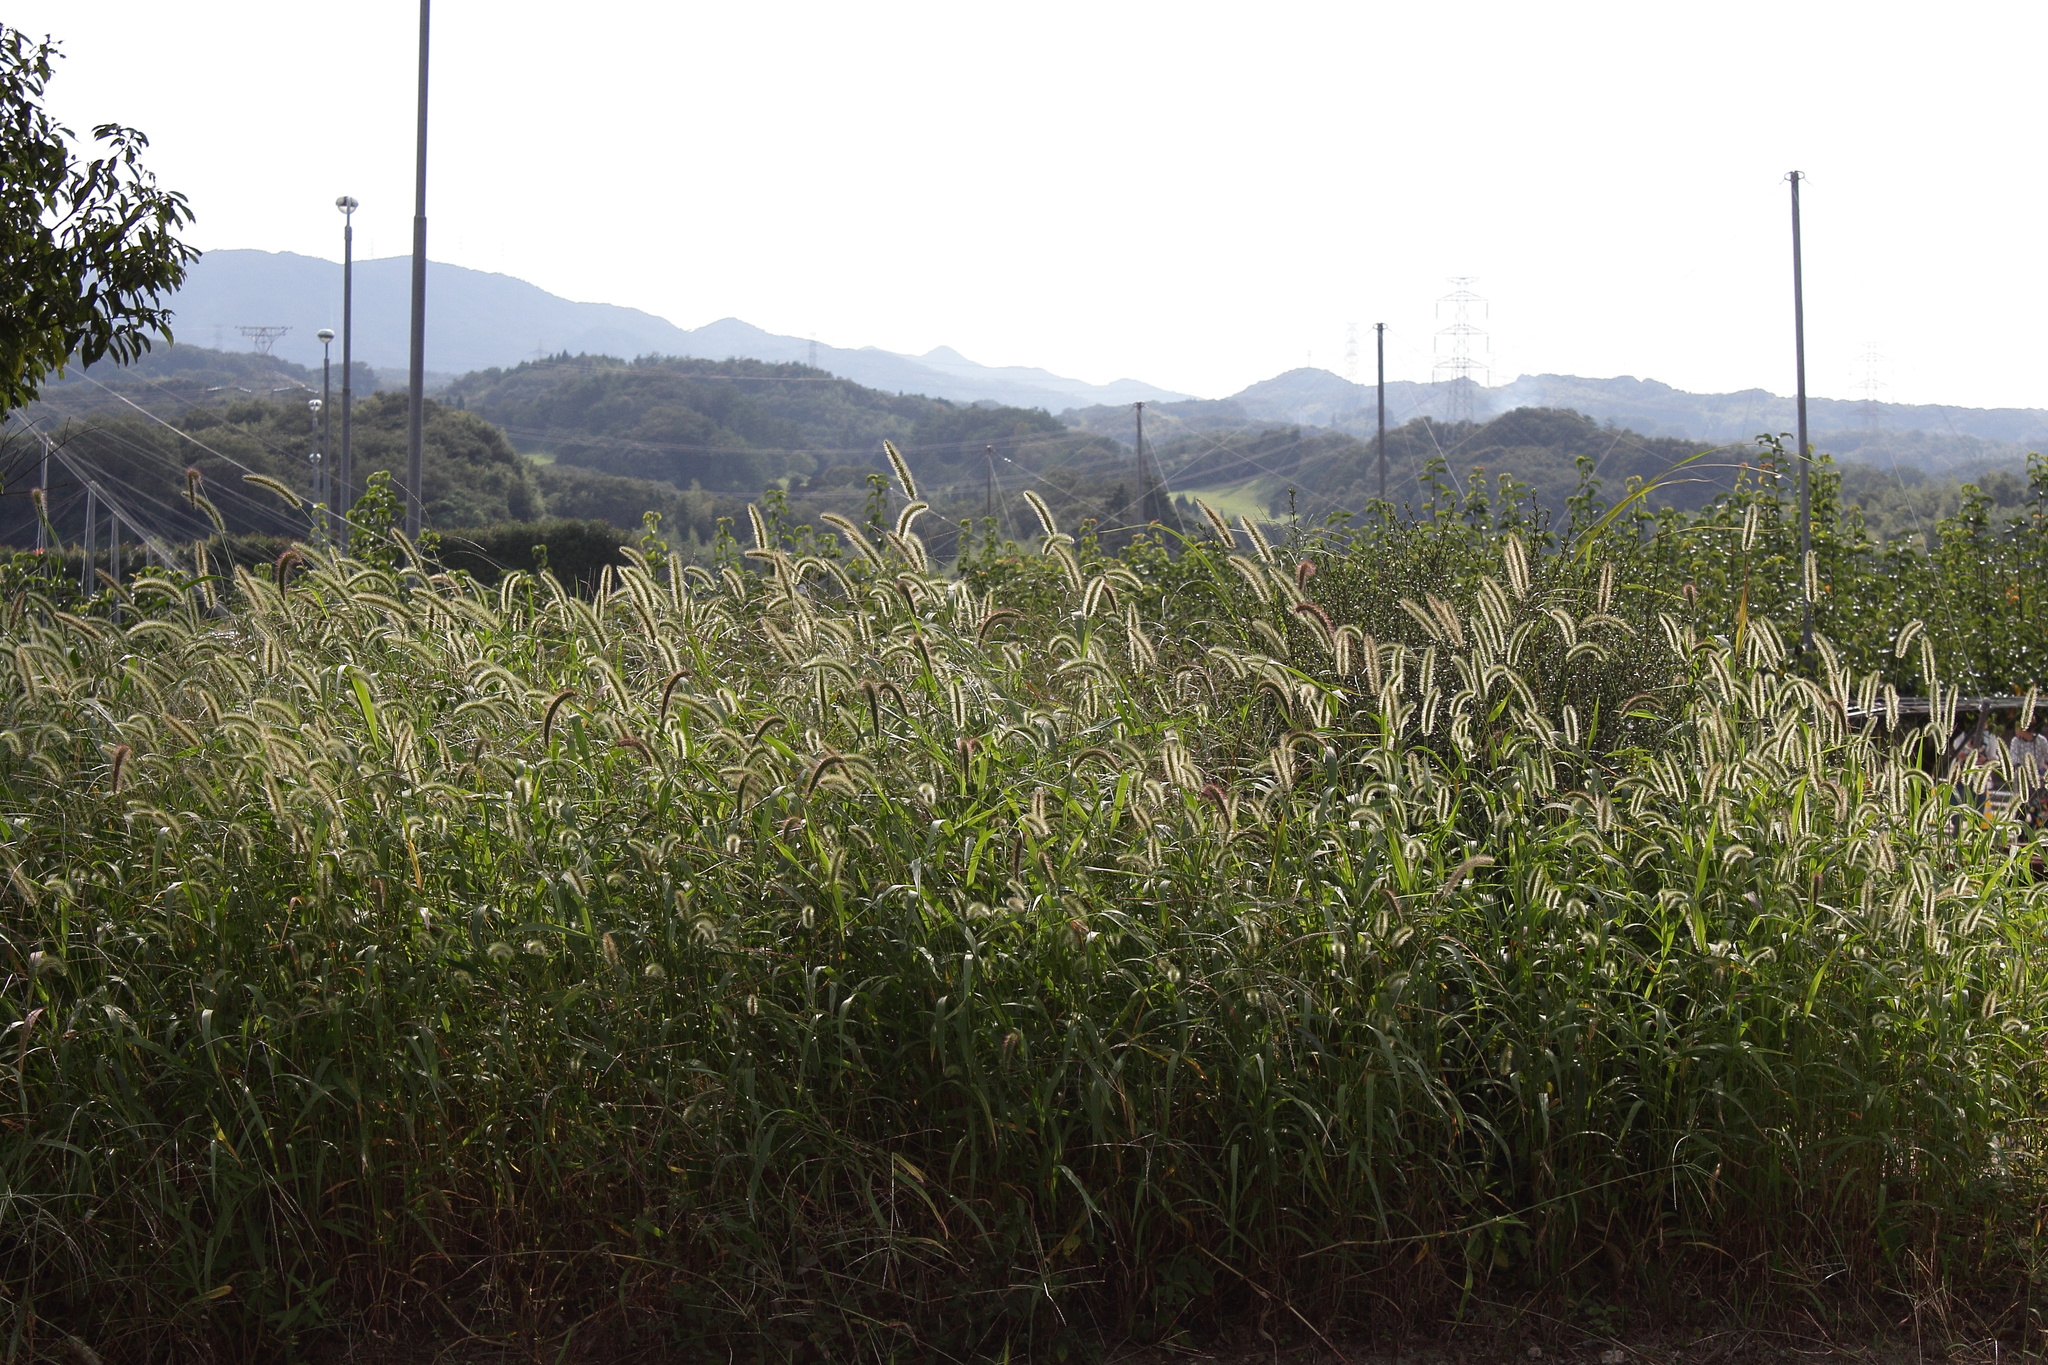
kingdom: Plantae
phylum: Tracheophyta
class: Liliopsida
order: Poales
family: Poaceae
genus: Setaria
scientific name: Setaria viridis
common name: Green bristlegrass
